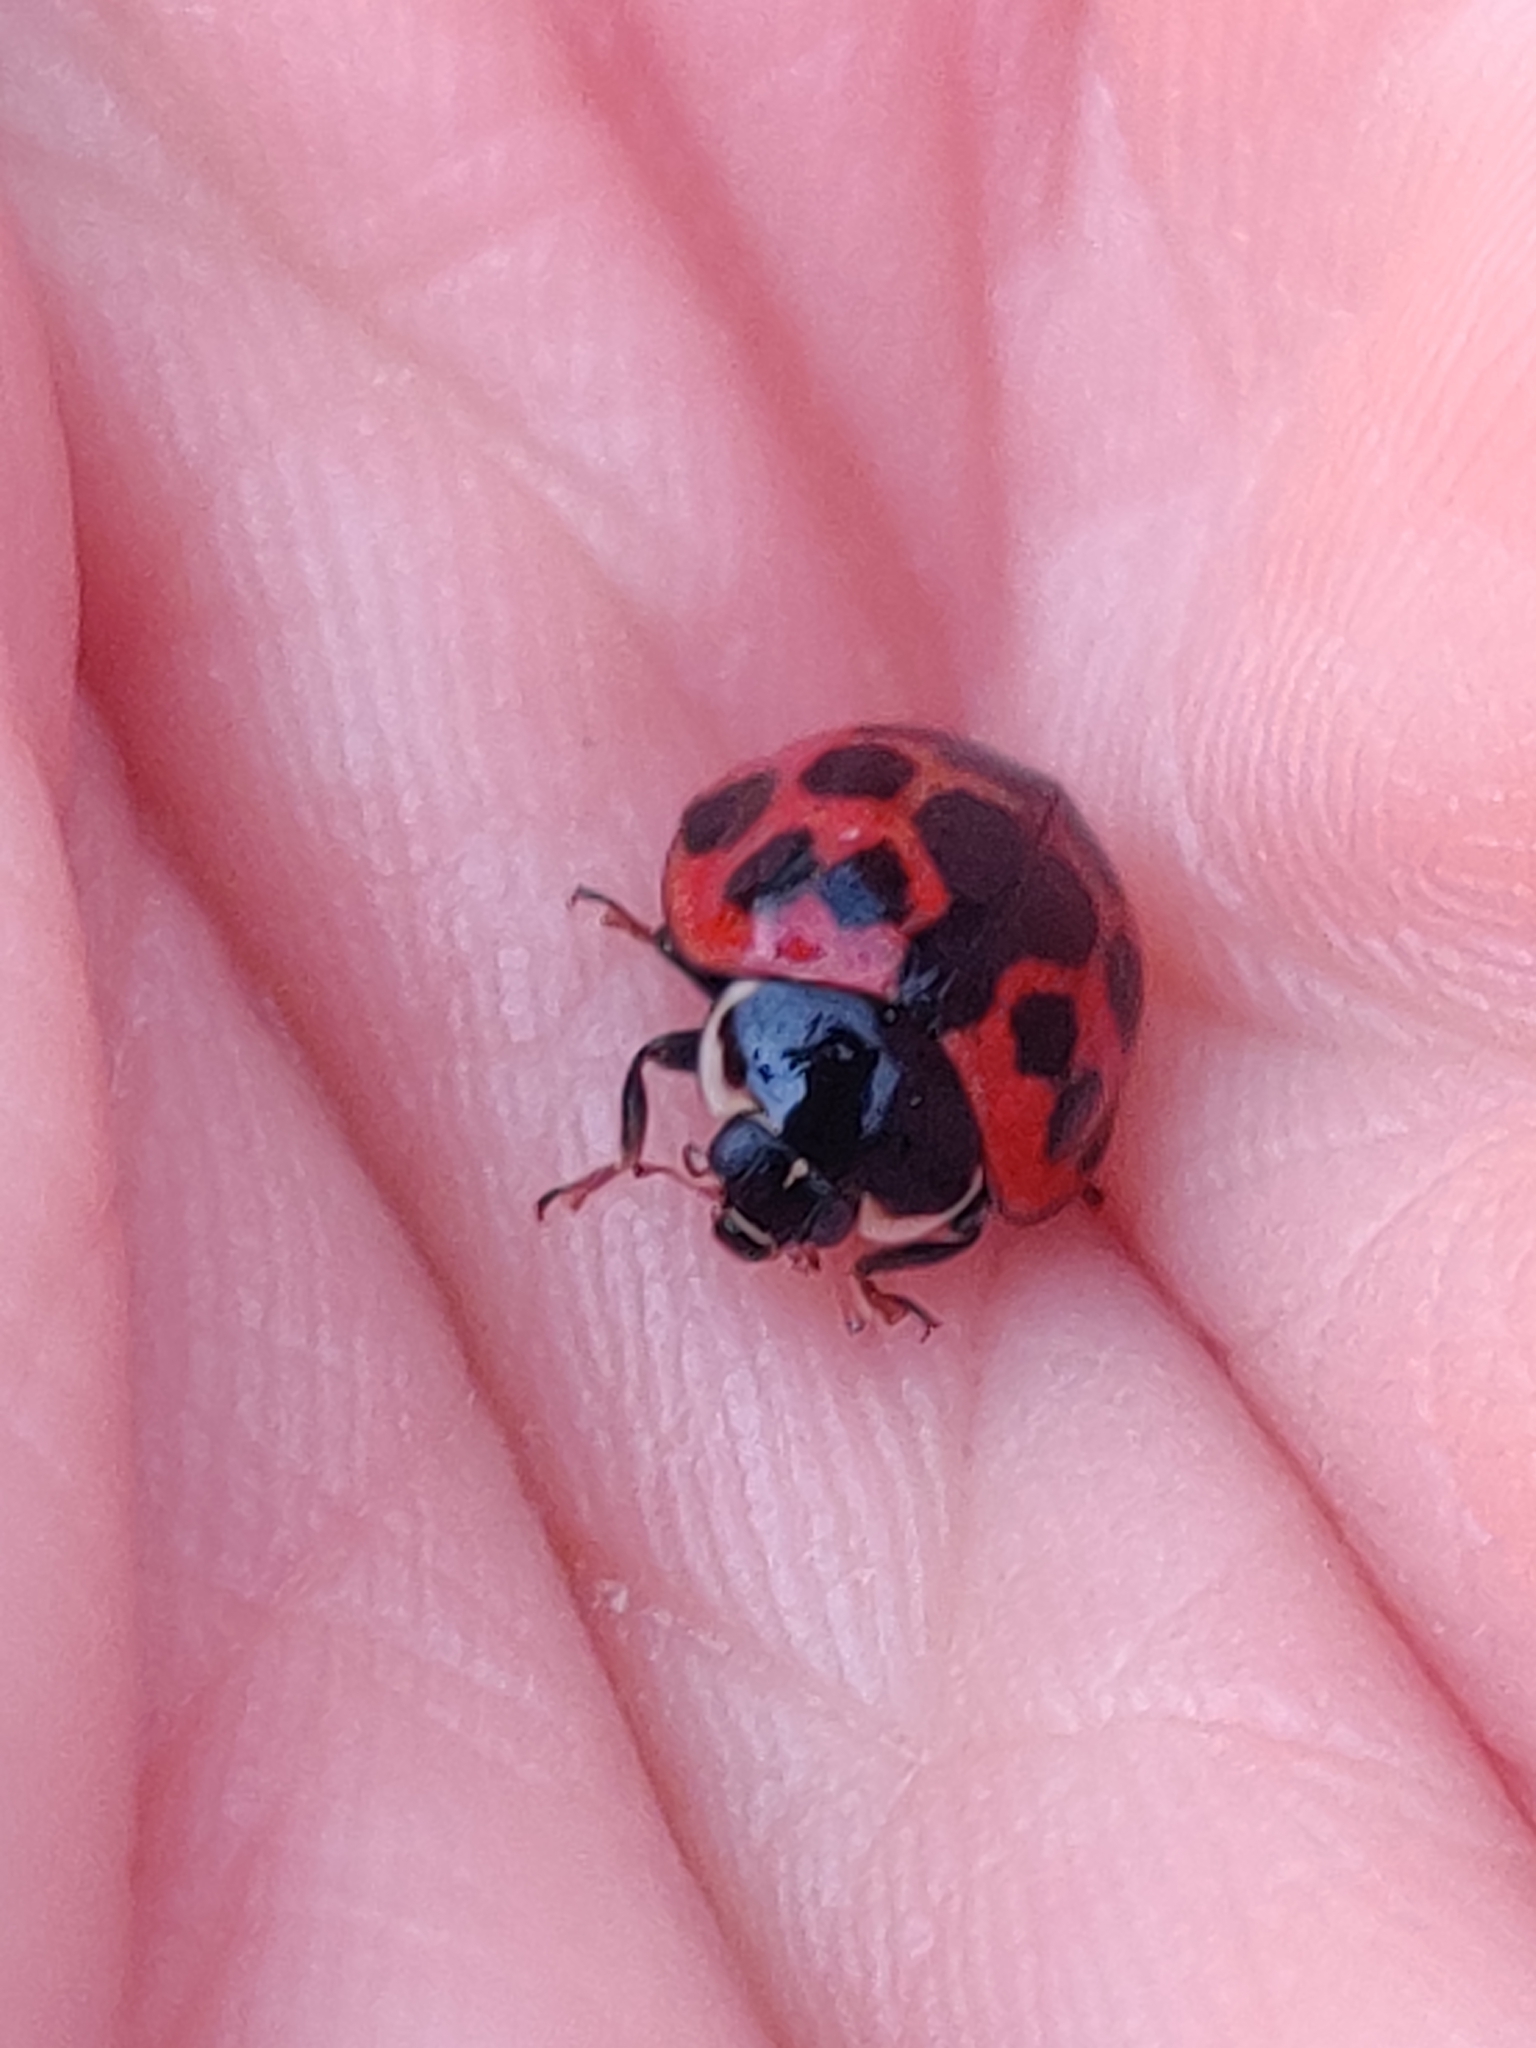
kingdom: Animalia
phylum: Arthropoda
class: Insecta
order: Coleoptera
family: Coccinellidae
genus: Harmonia
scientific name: Harmonia axyridis
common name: Harlequin ladybird
